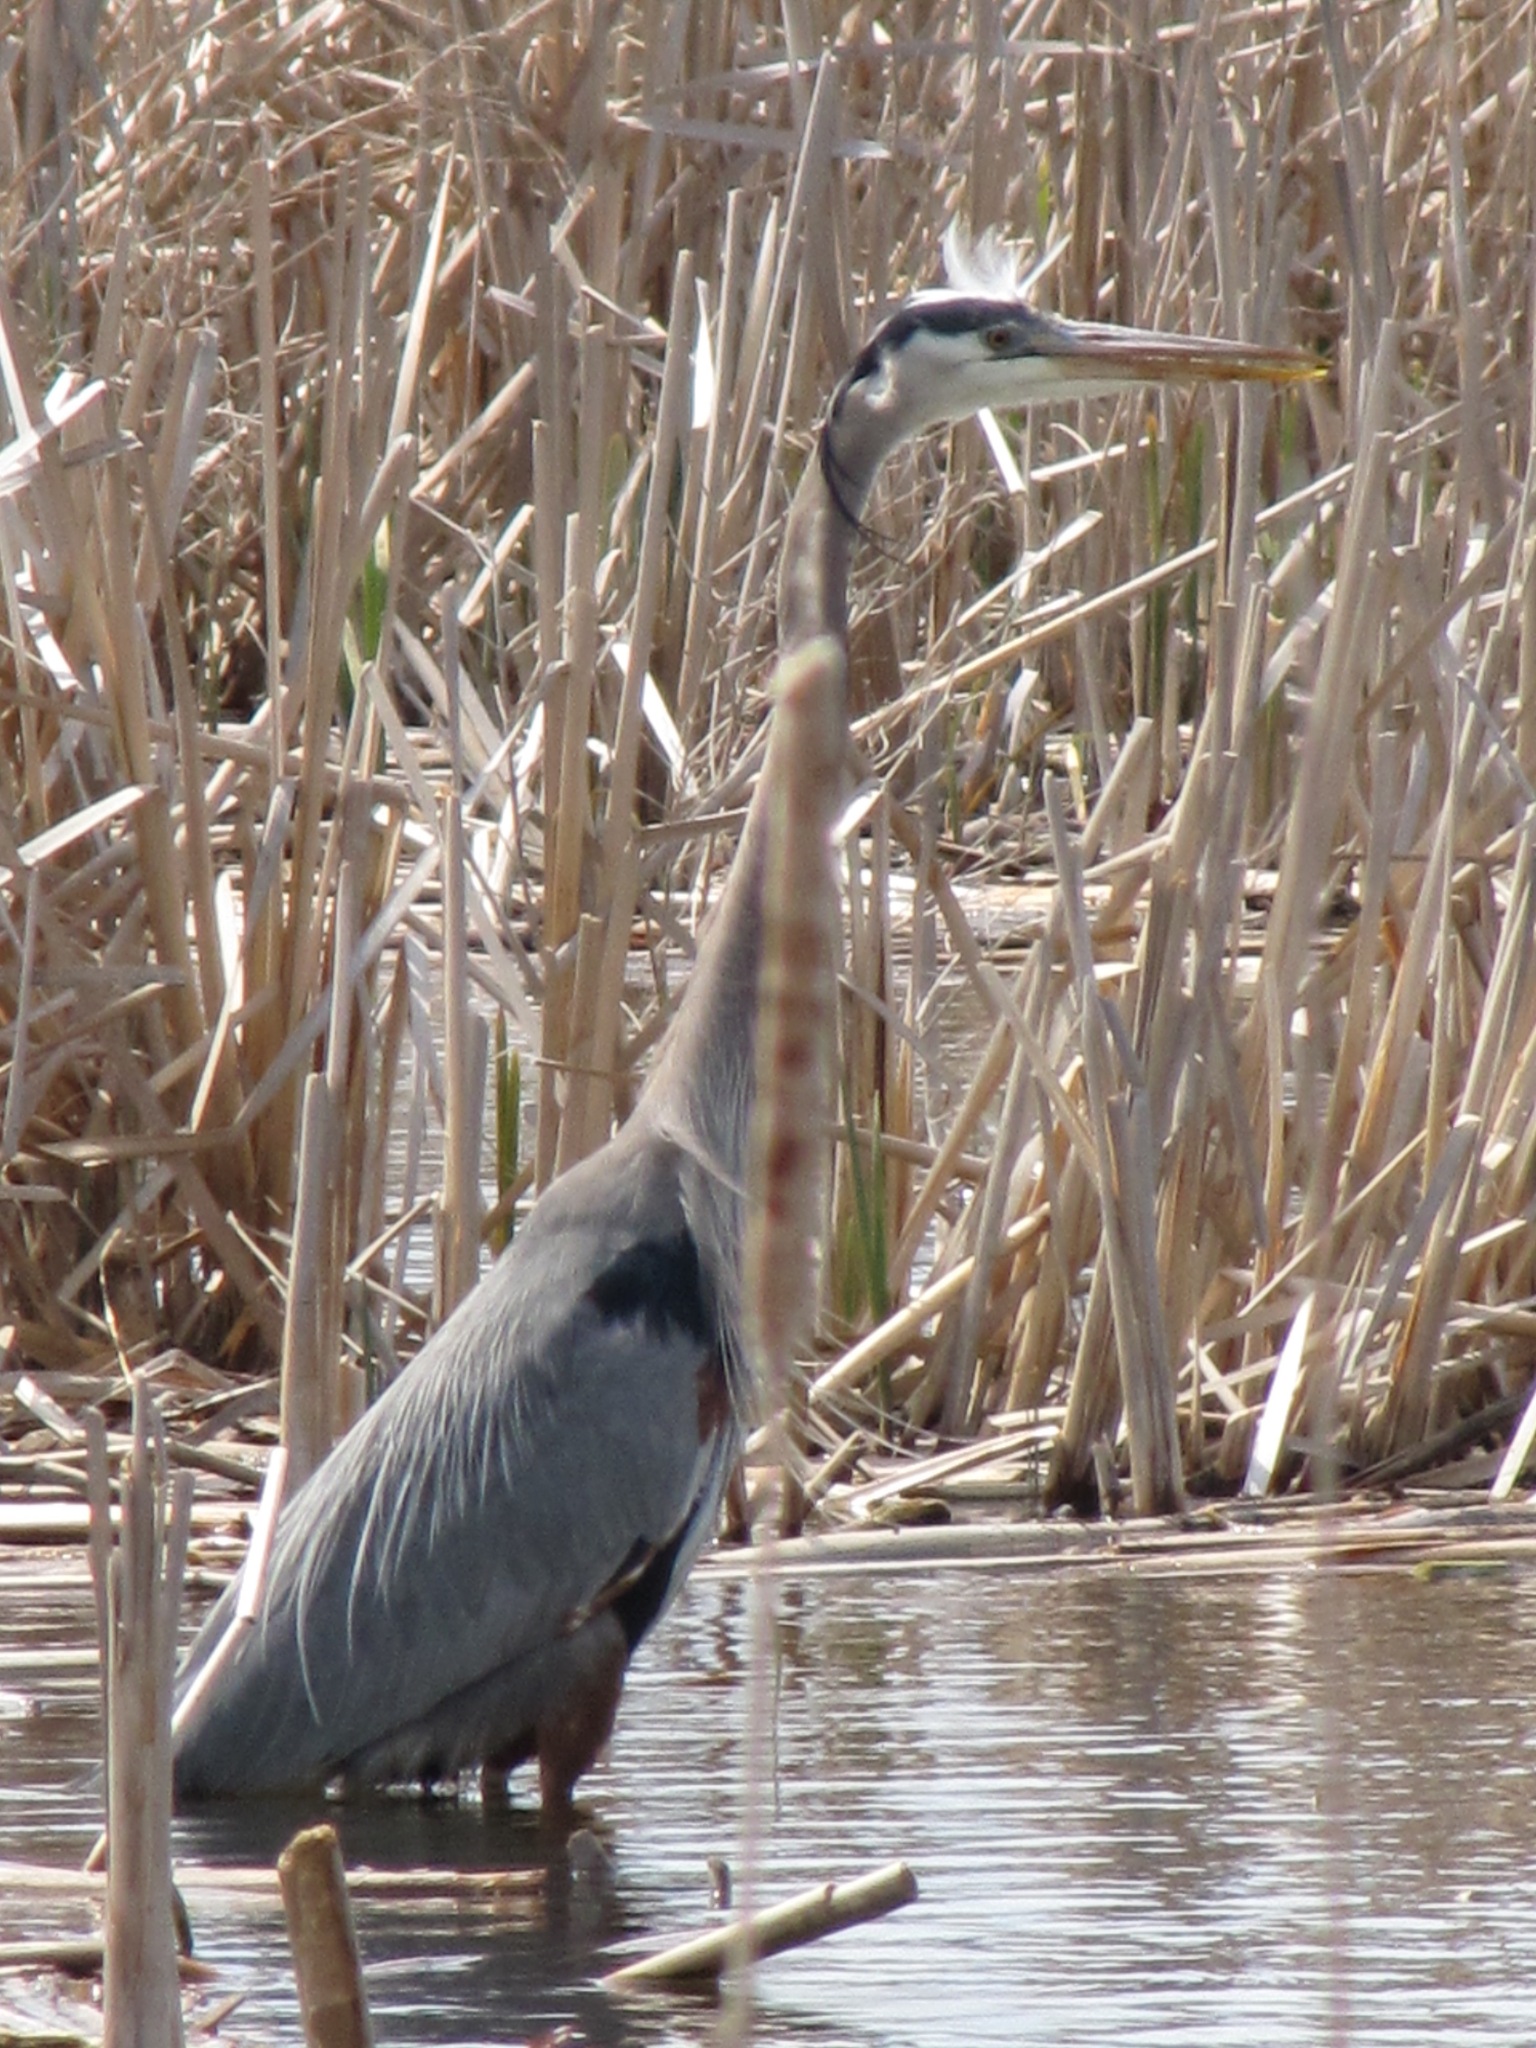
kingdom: Animalia
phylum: Chordata
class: Aves
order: Pelecaniformes
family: Ardeidae
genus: Ardea
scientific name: Ardea herodias
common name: Great blue heron
